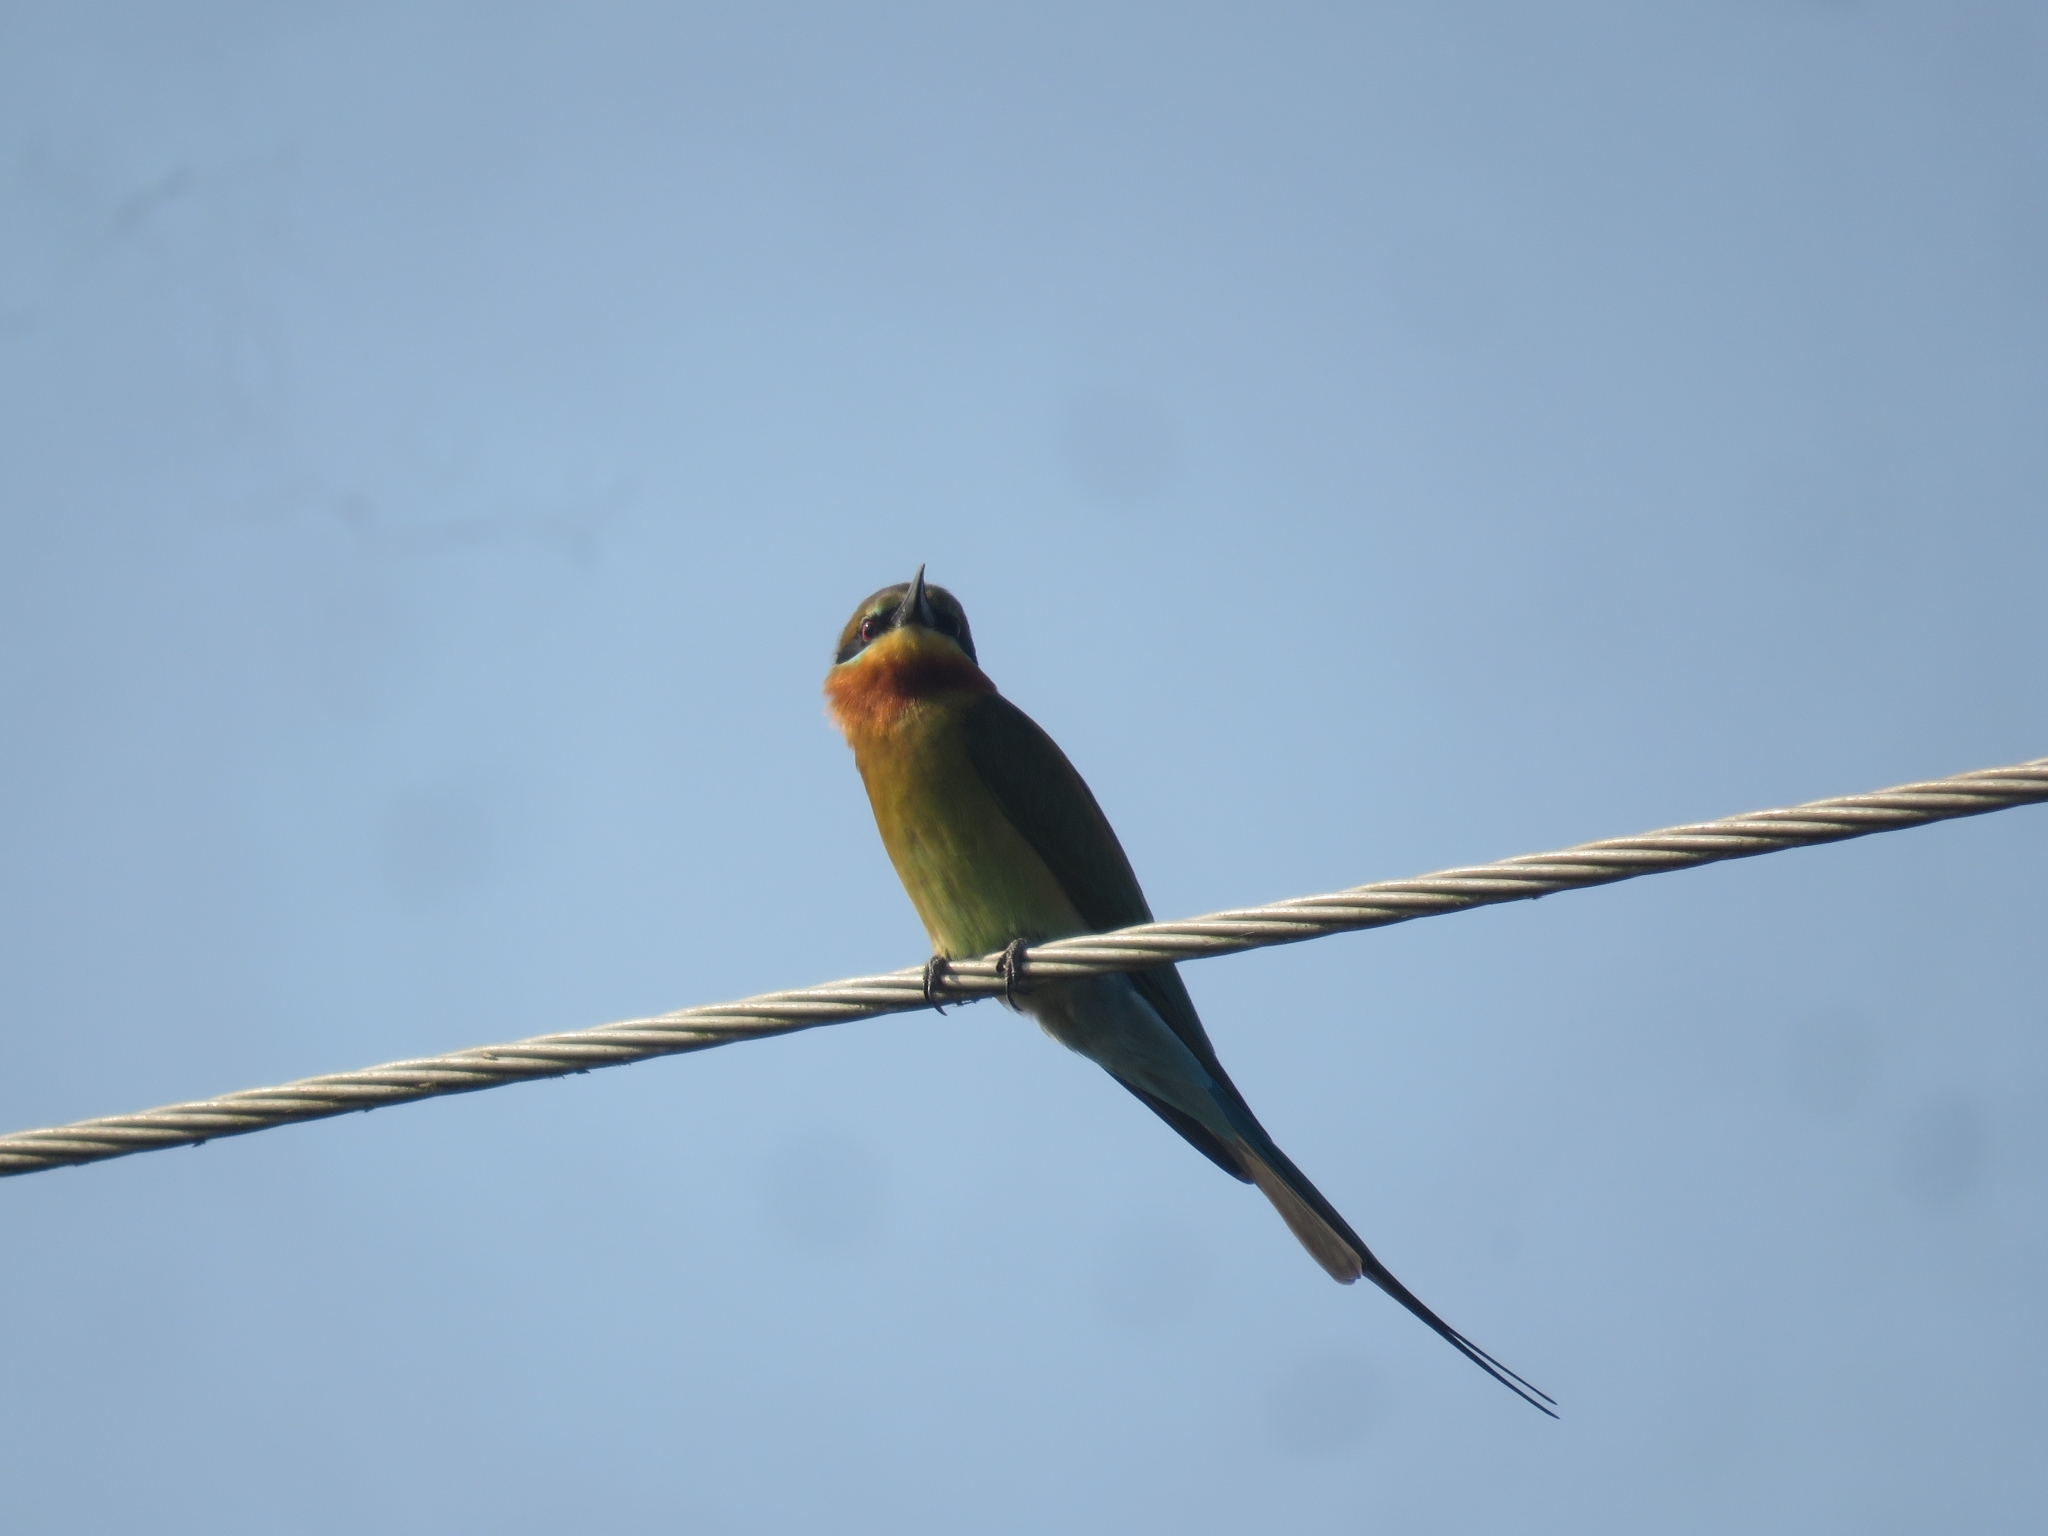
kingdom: Animalia
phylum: Chordata
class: Aves
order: Coraciiformes
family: Meropidae
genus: Merops
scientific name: Merops philippinus
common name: Blue-tailed bee-eater
